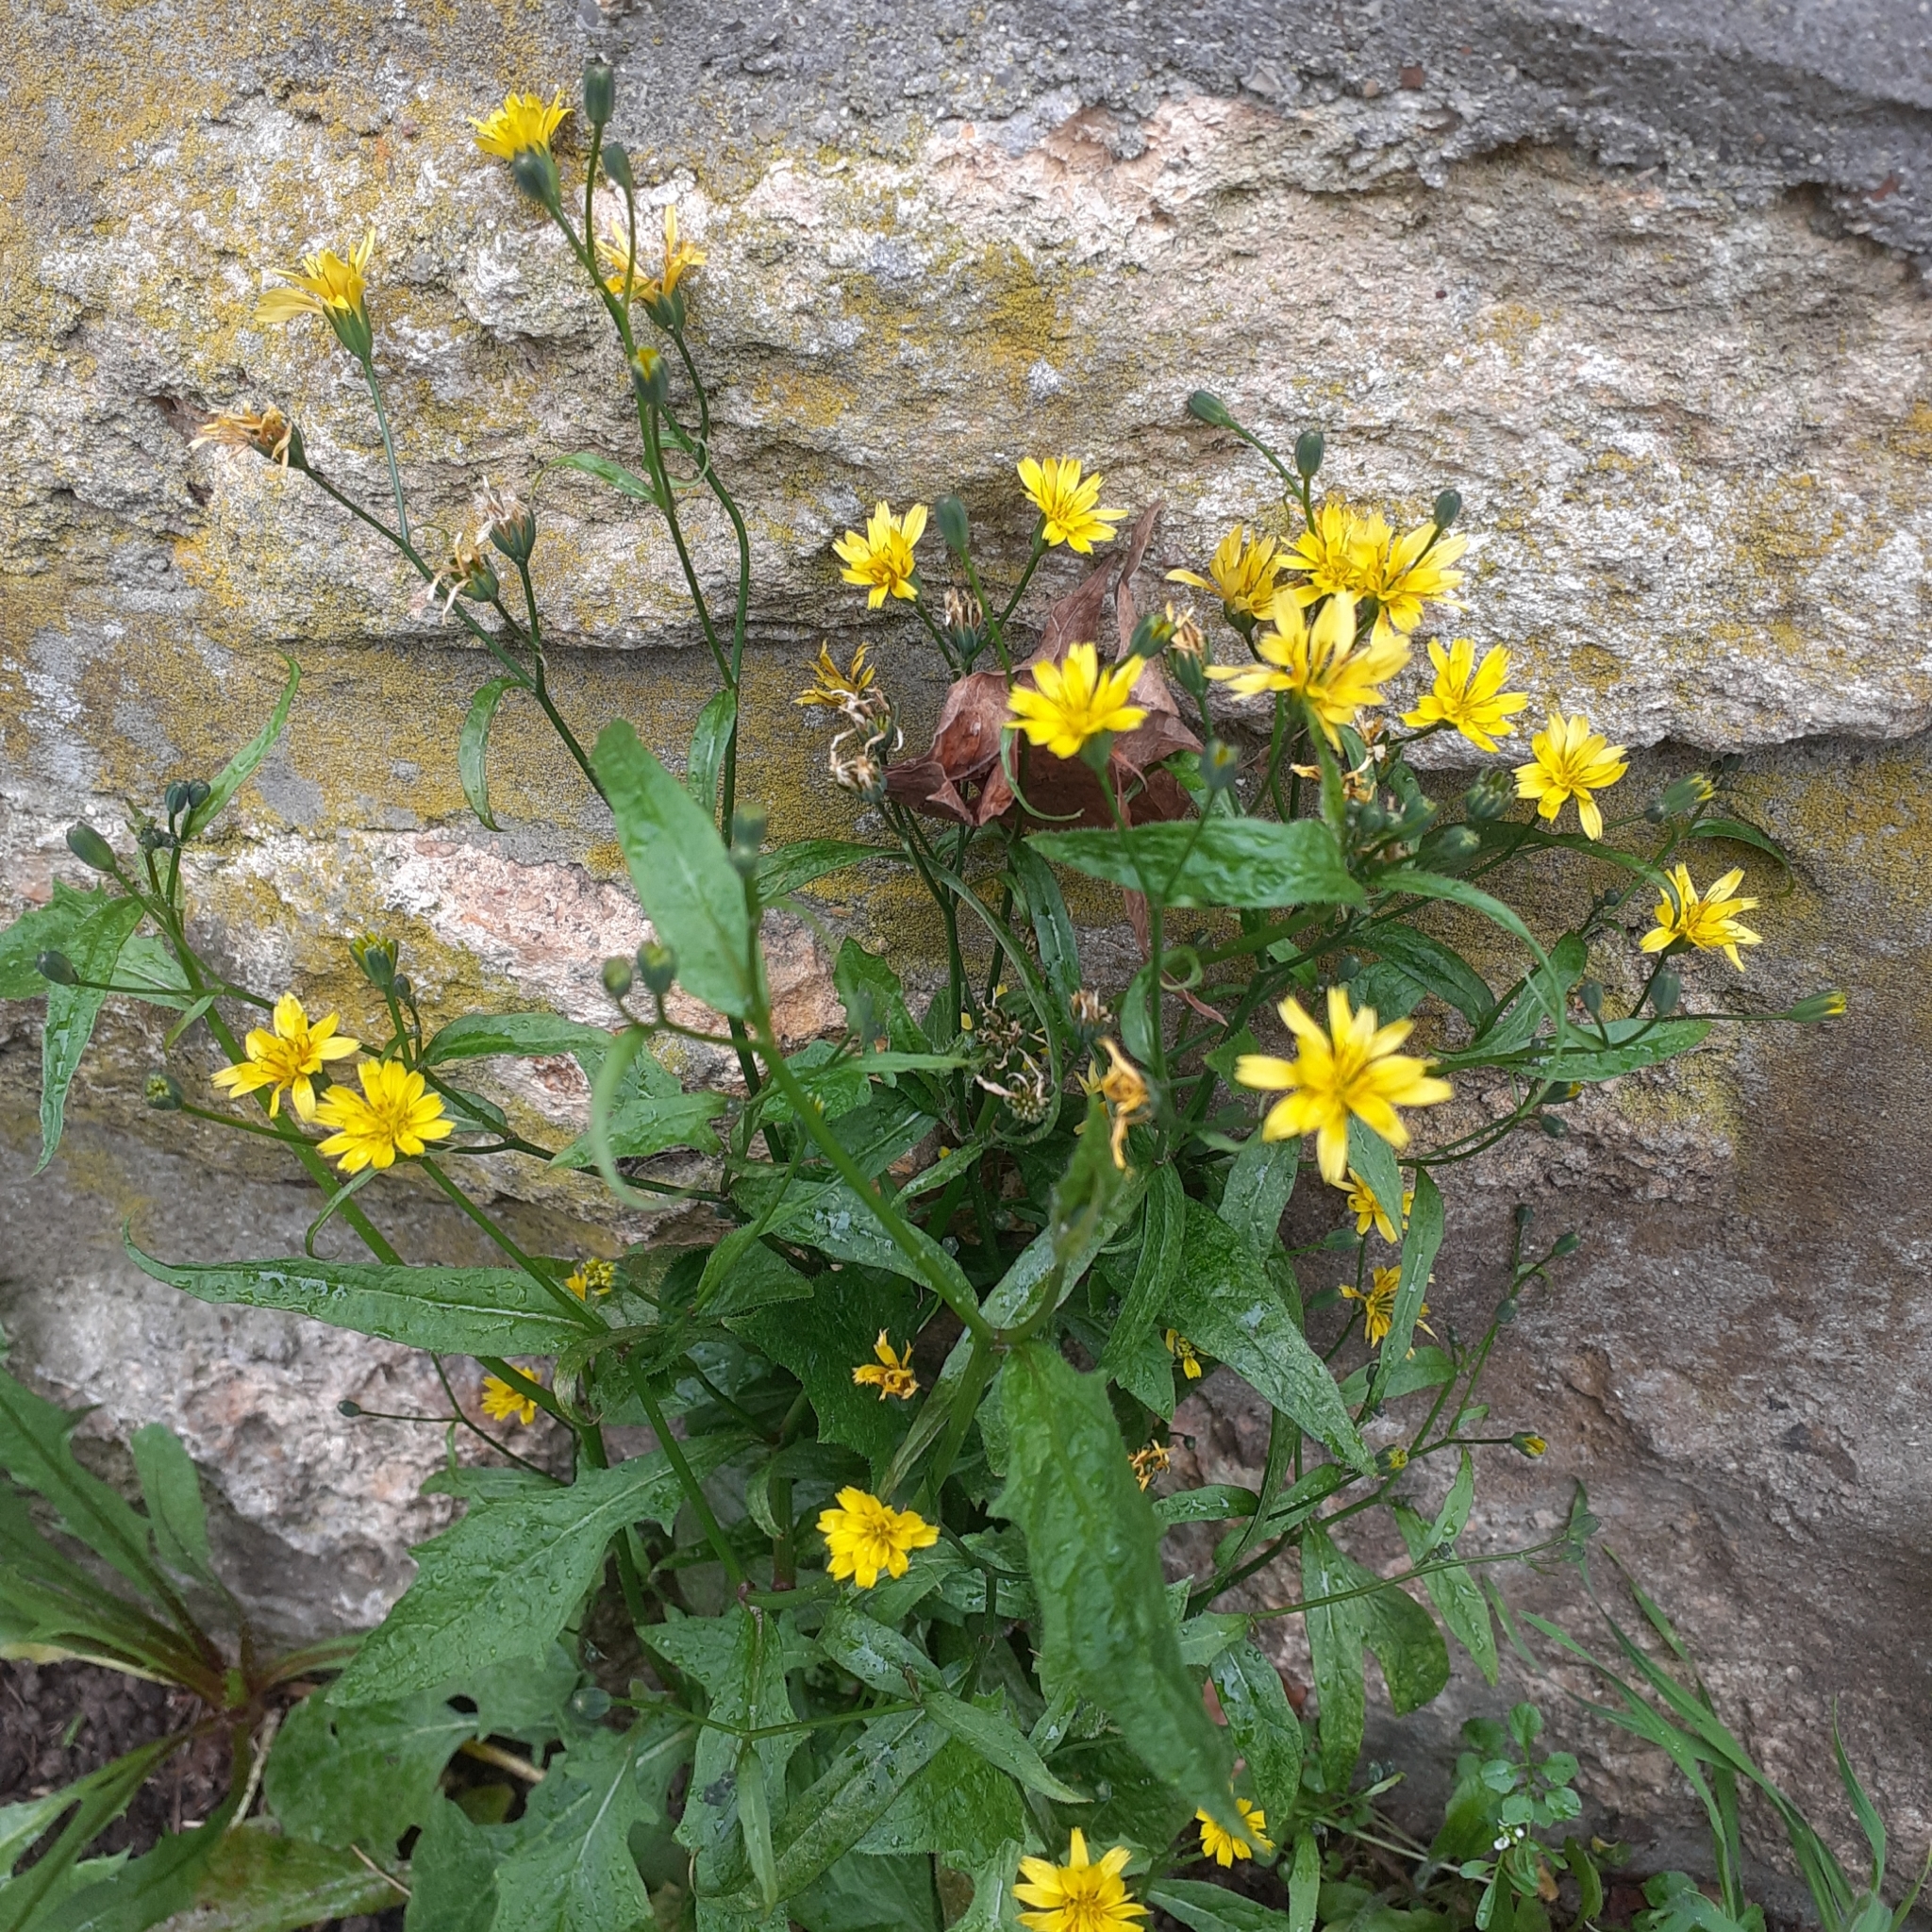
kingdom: Plantae
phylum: Tracheophyta
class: Magnoliopsida
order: Asterales
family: Asteraceae
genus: Lapsana
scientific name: Lapsana communis
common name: Nipplewort
